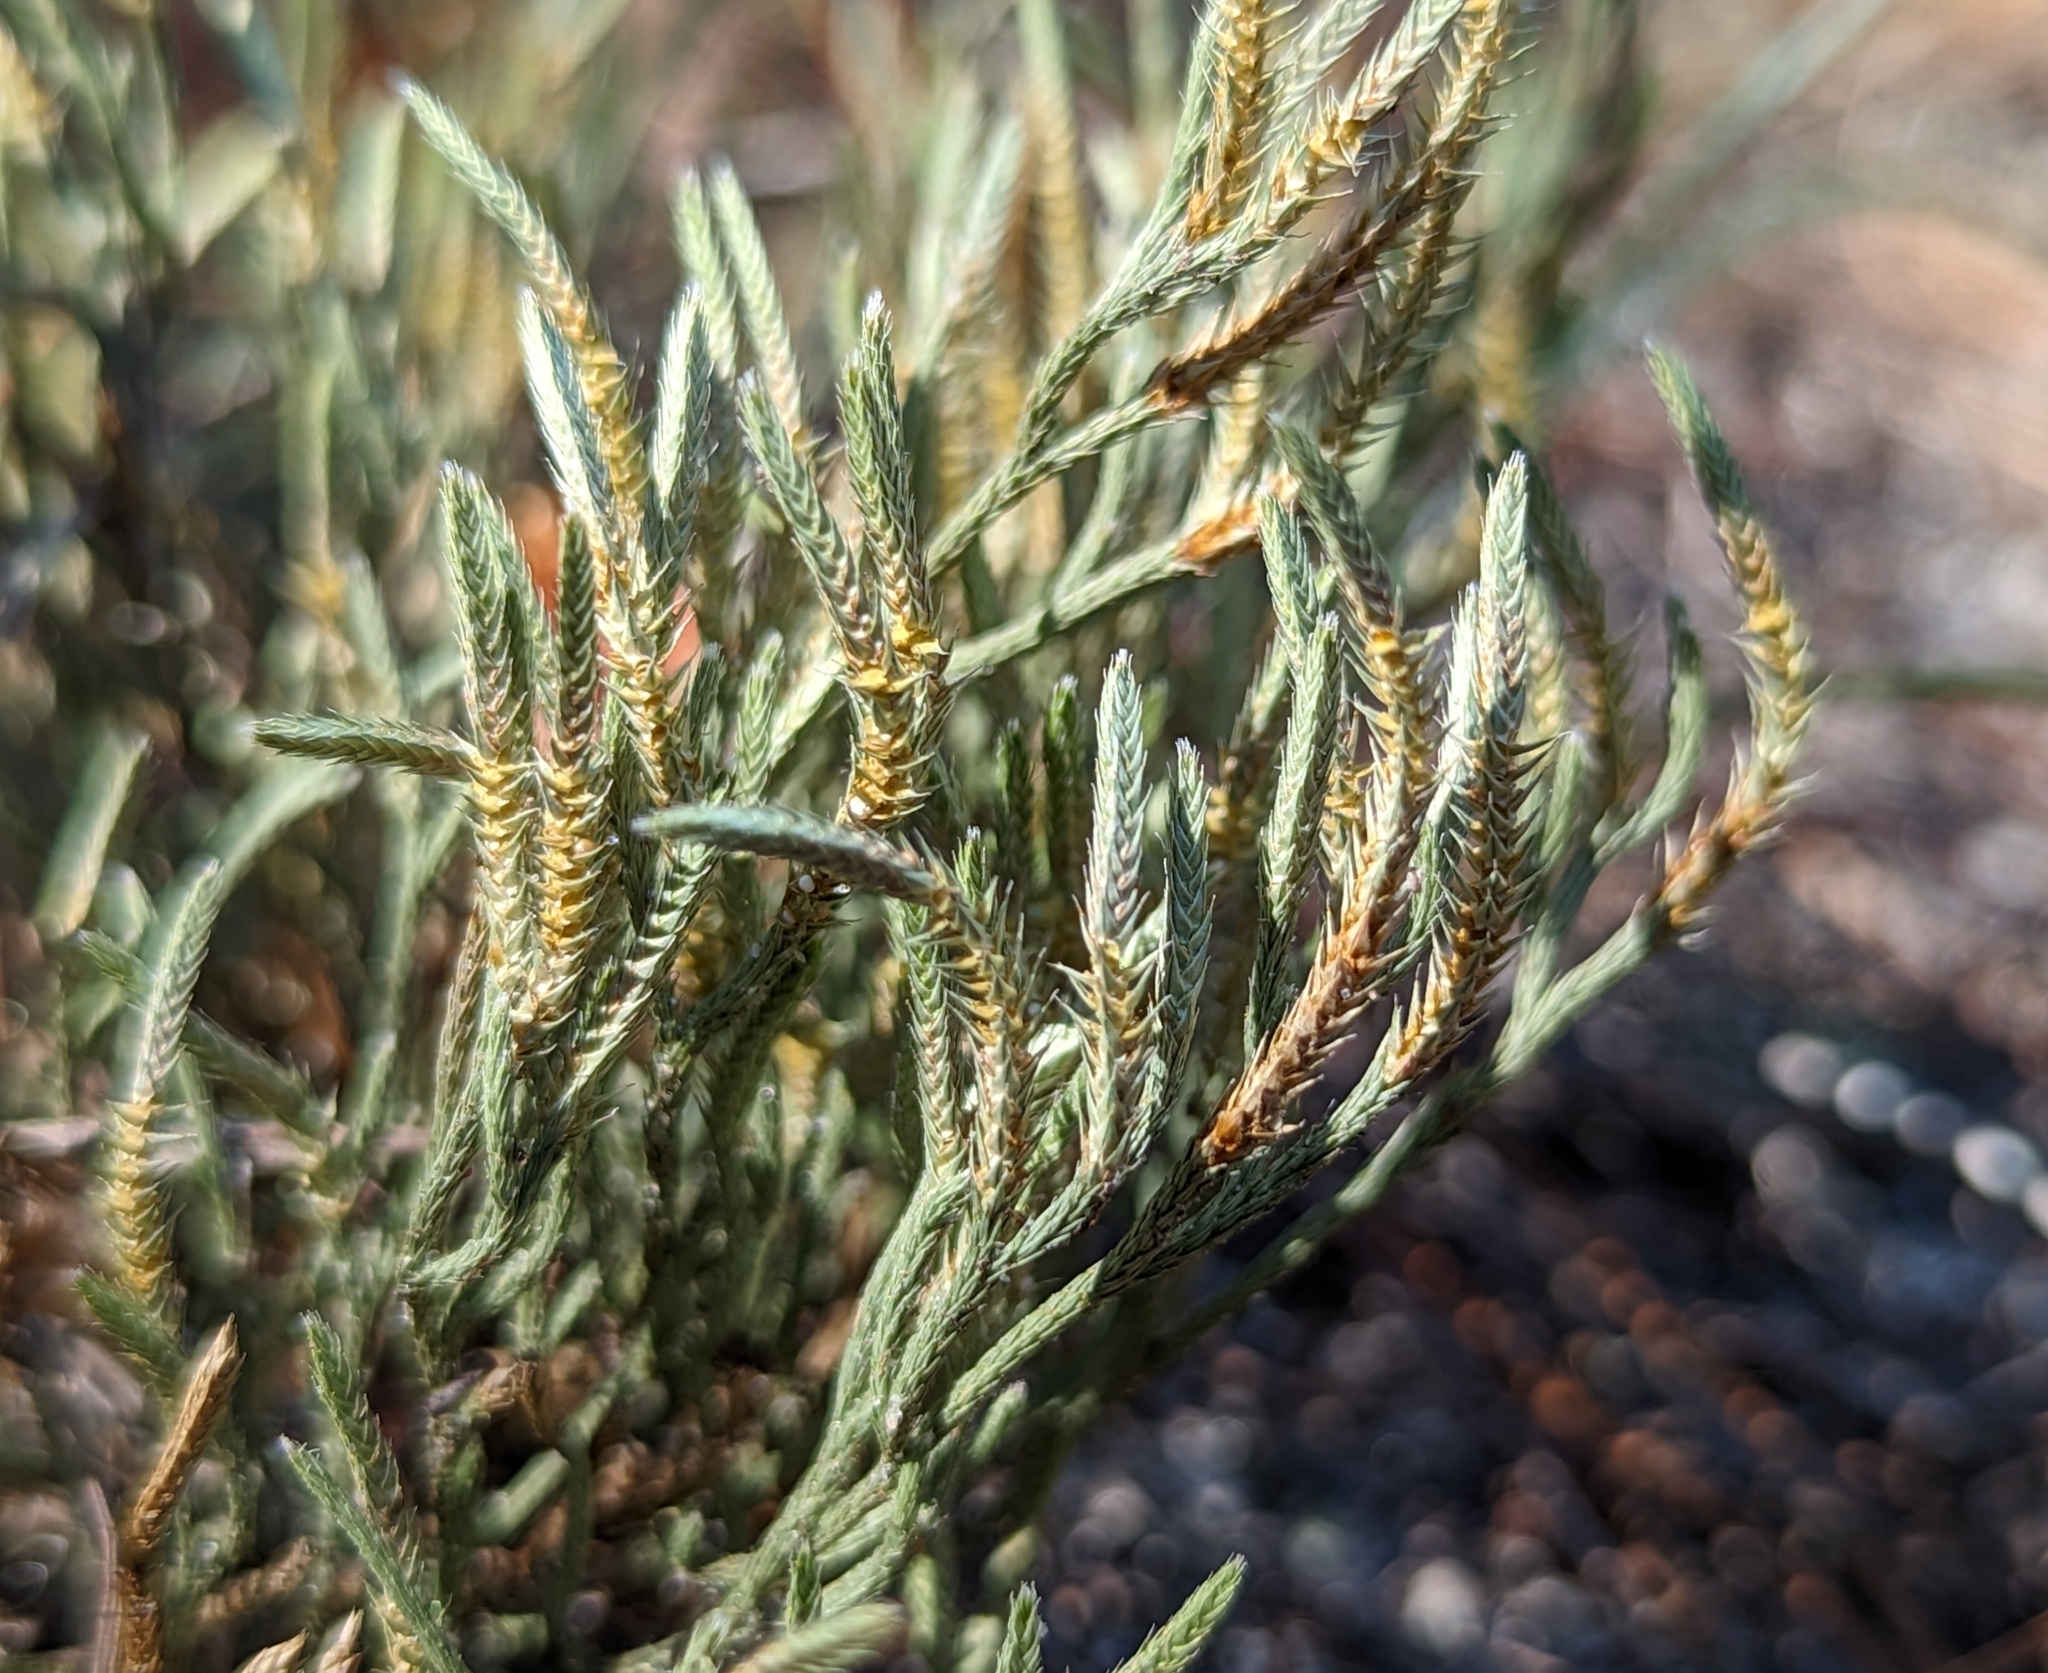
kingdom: Plantae
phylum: Tracheophyta
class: Lycopodiopsida
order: Selaginellales
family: Selaginellaceae
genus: Selaginella
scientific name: Selaginella arenicola
